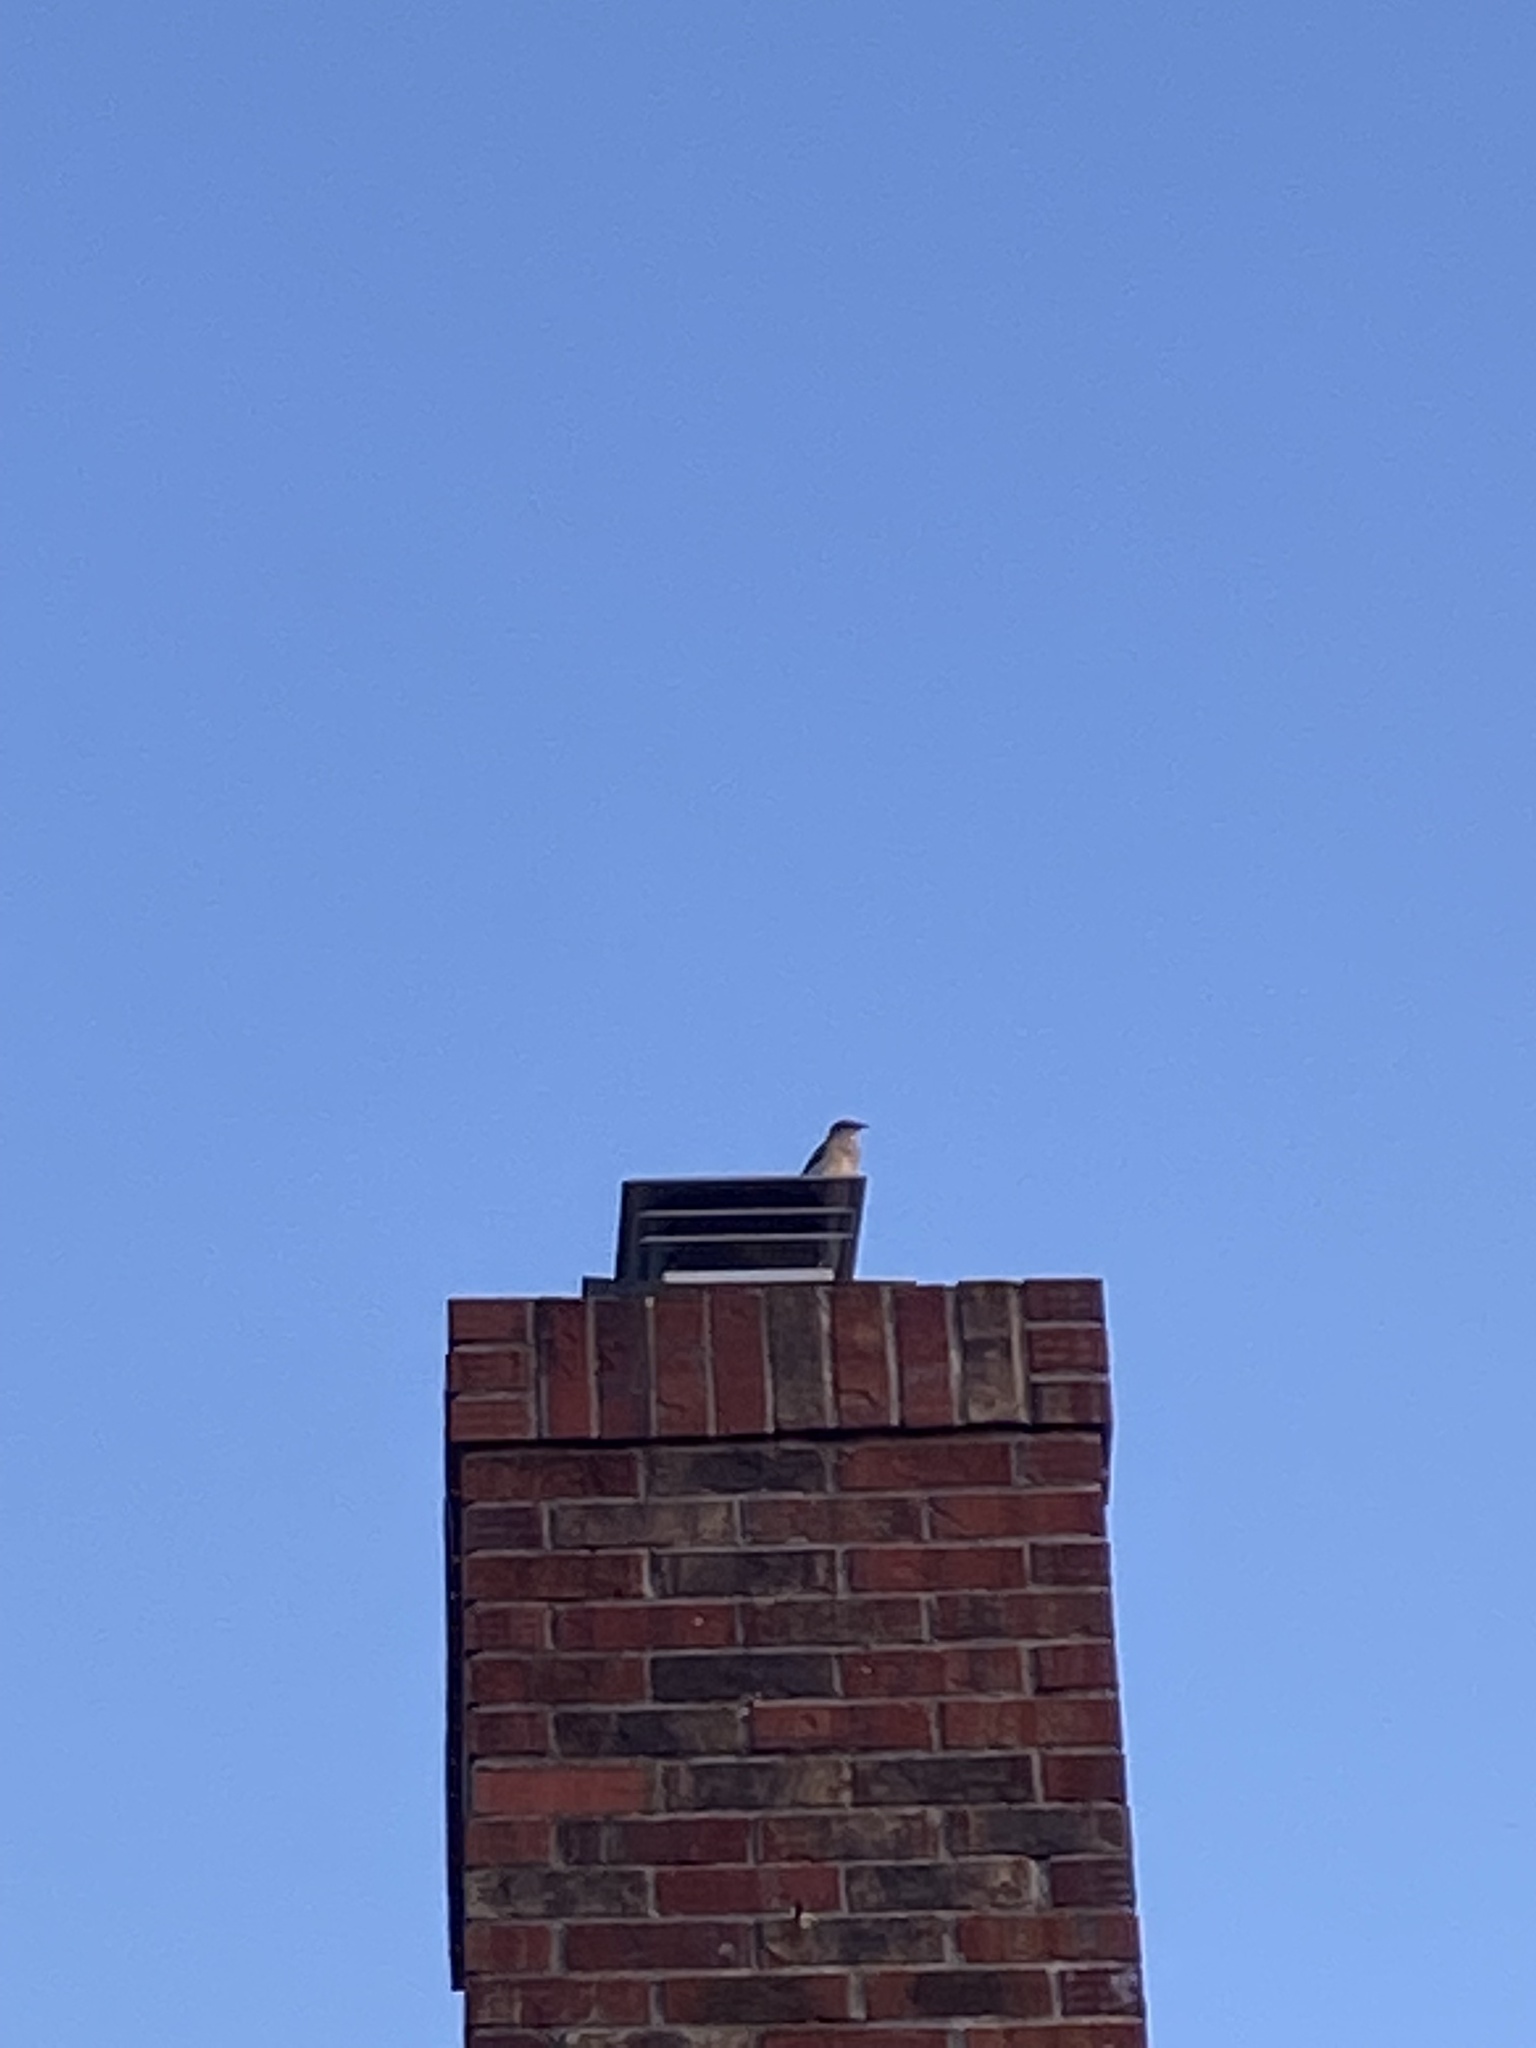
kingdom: Animalia
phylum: Chordata
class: Aves
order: Passeriformes
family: Mimidae
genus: Mimus
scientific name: Mimus polyglottos
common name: Northern mockingbird
